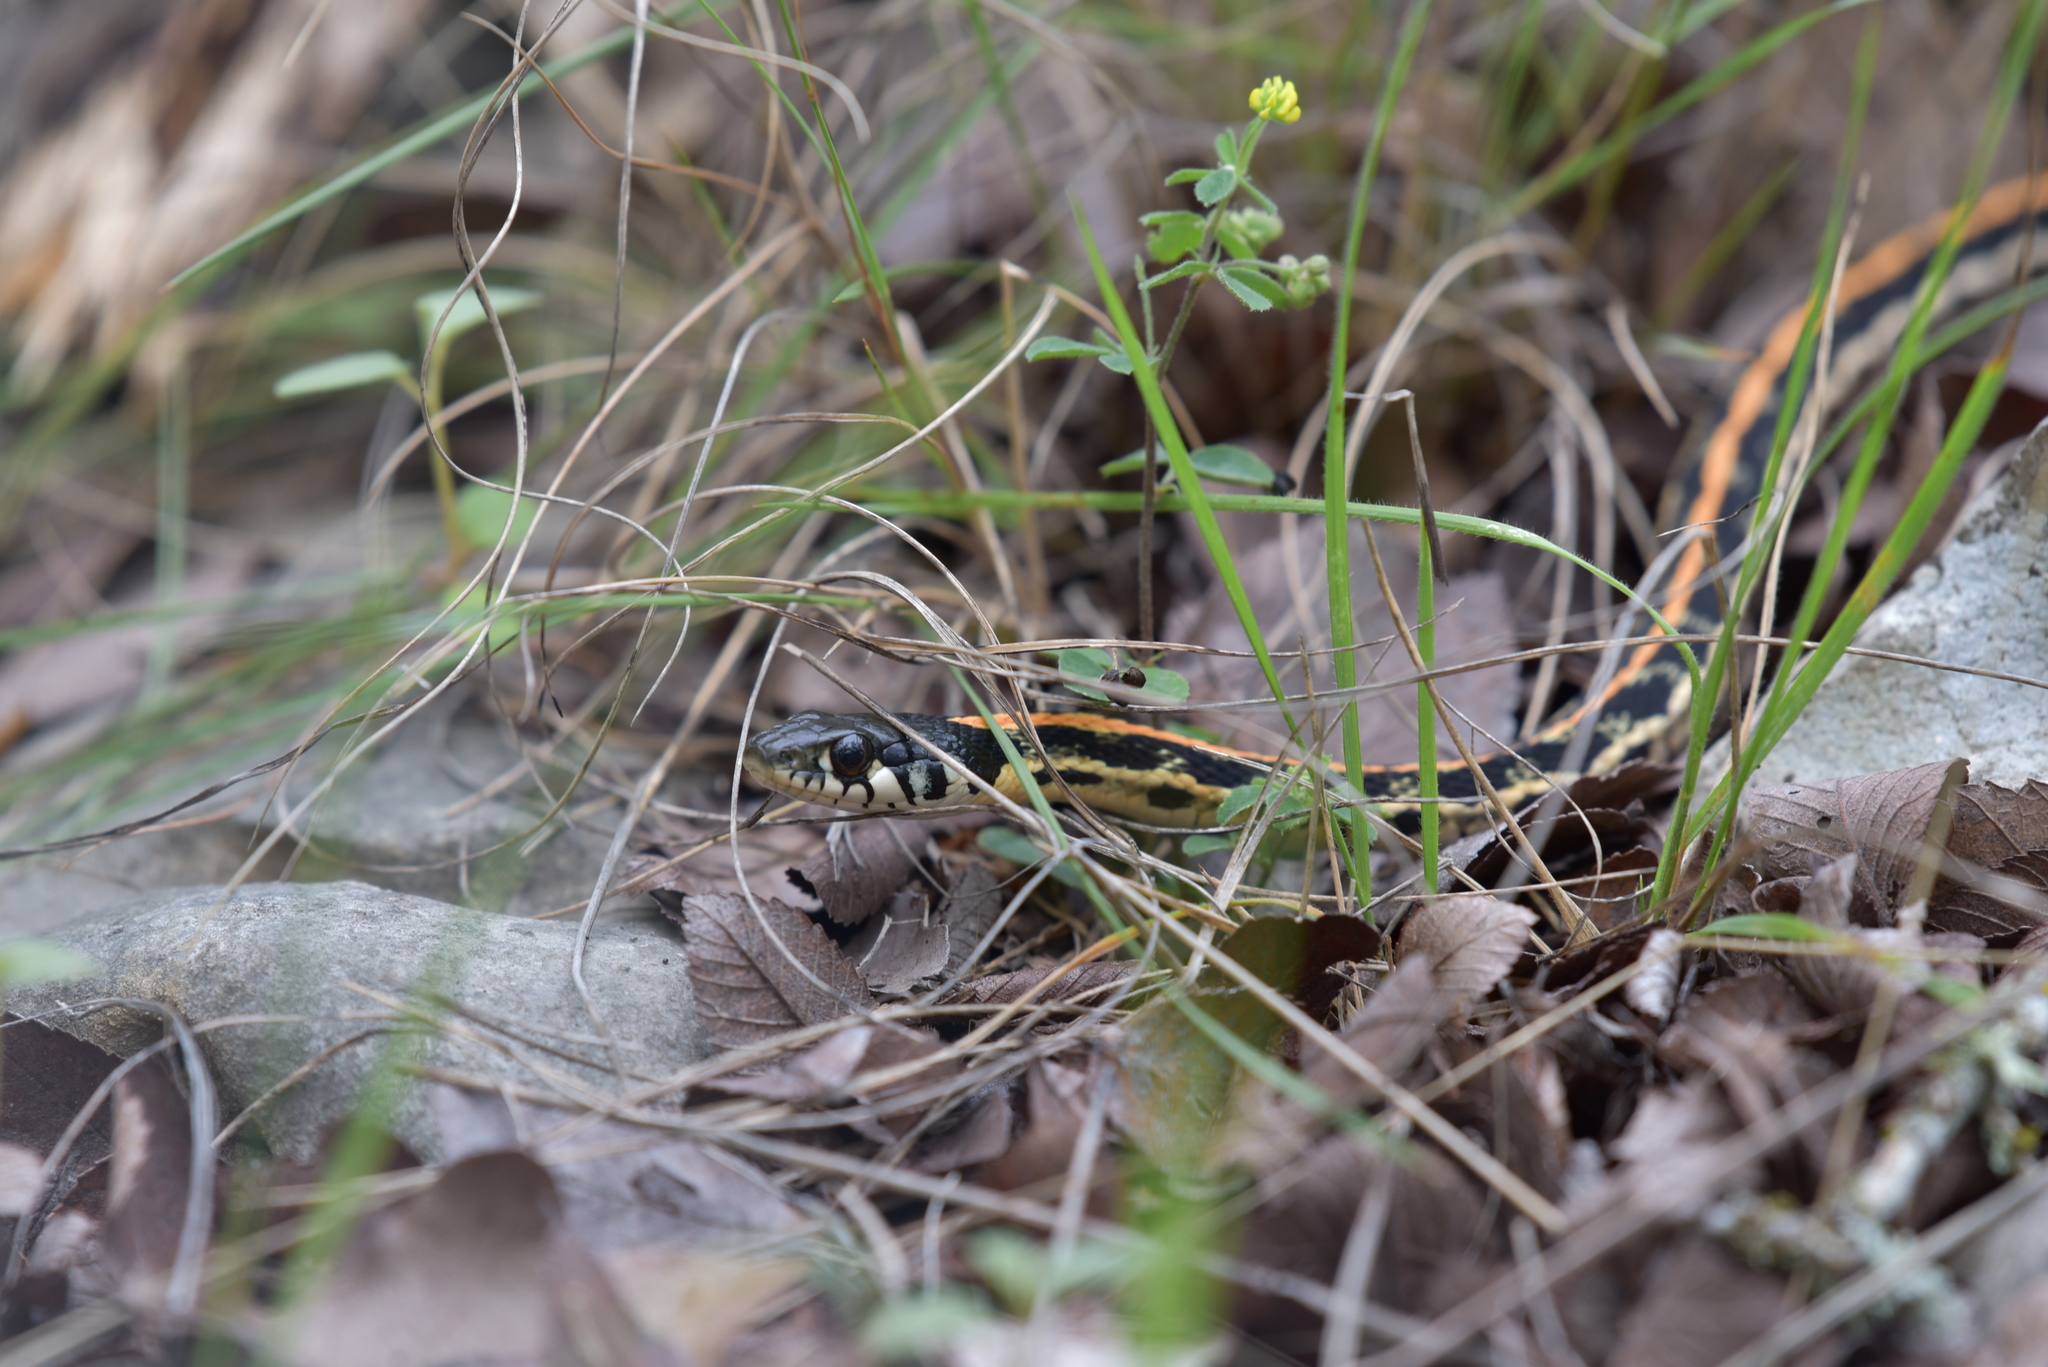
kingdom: Animalia
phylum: Chordata
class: Squamata
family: Colubridae
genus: Thamnophis
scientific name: Thamnophis cyrtopsis
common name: Black-necked gartersnake
